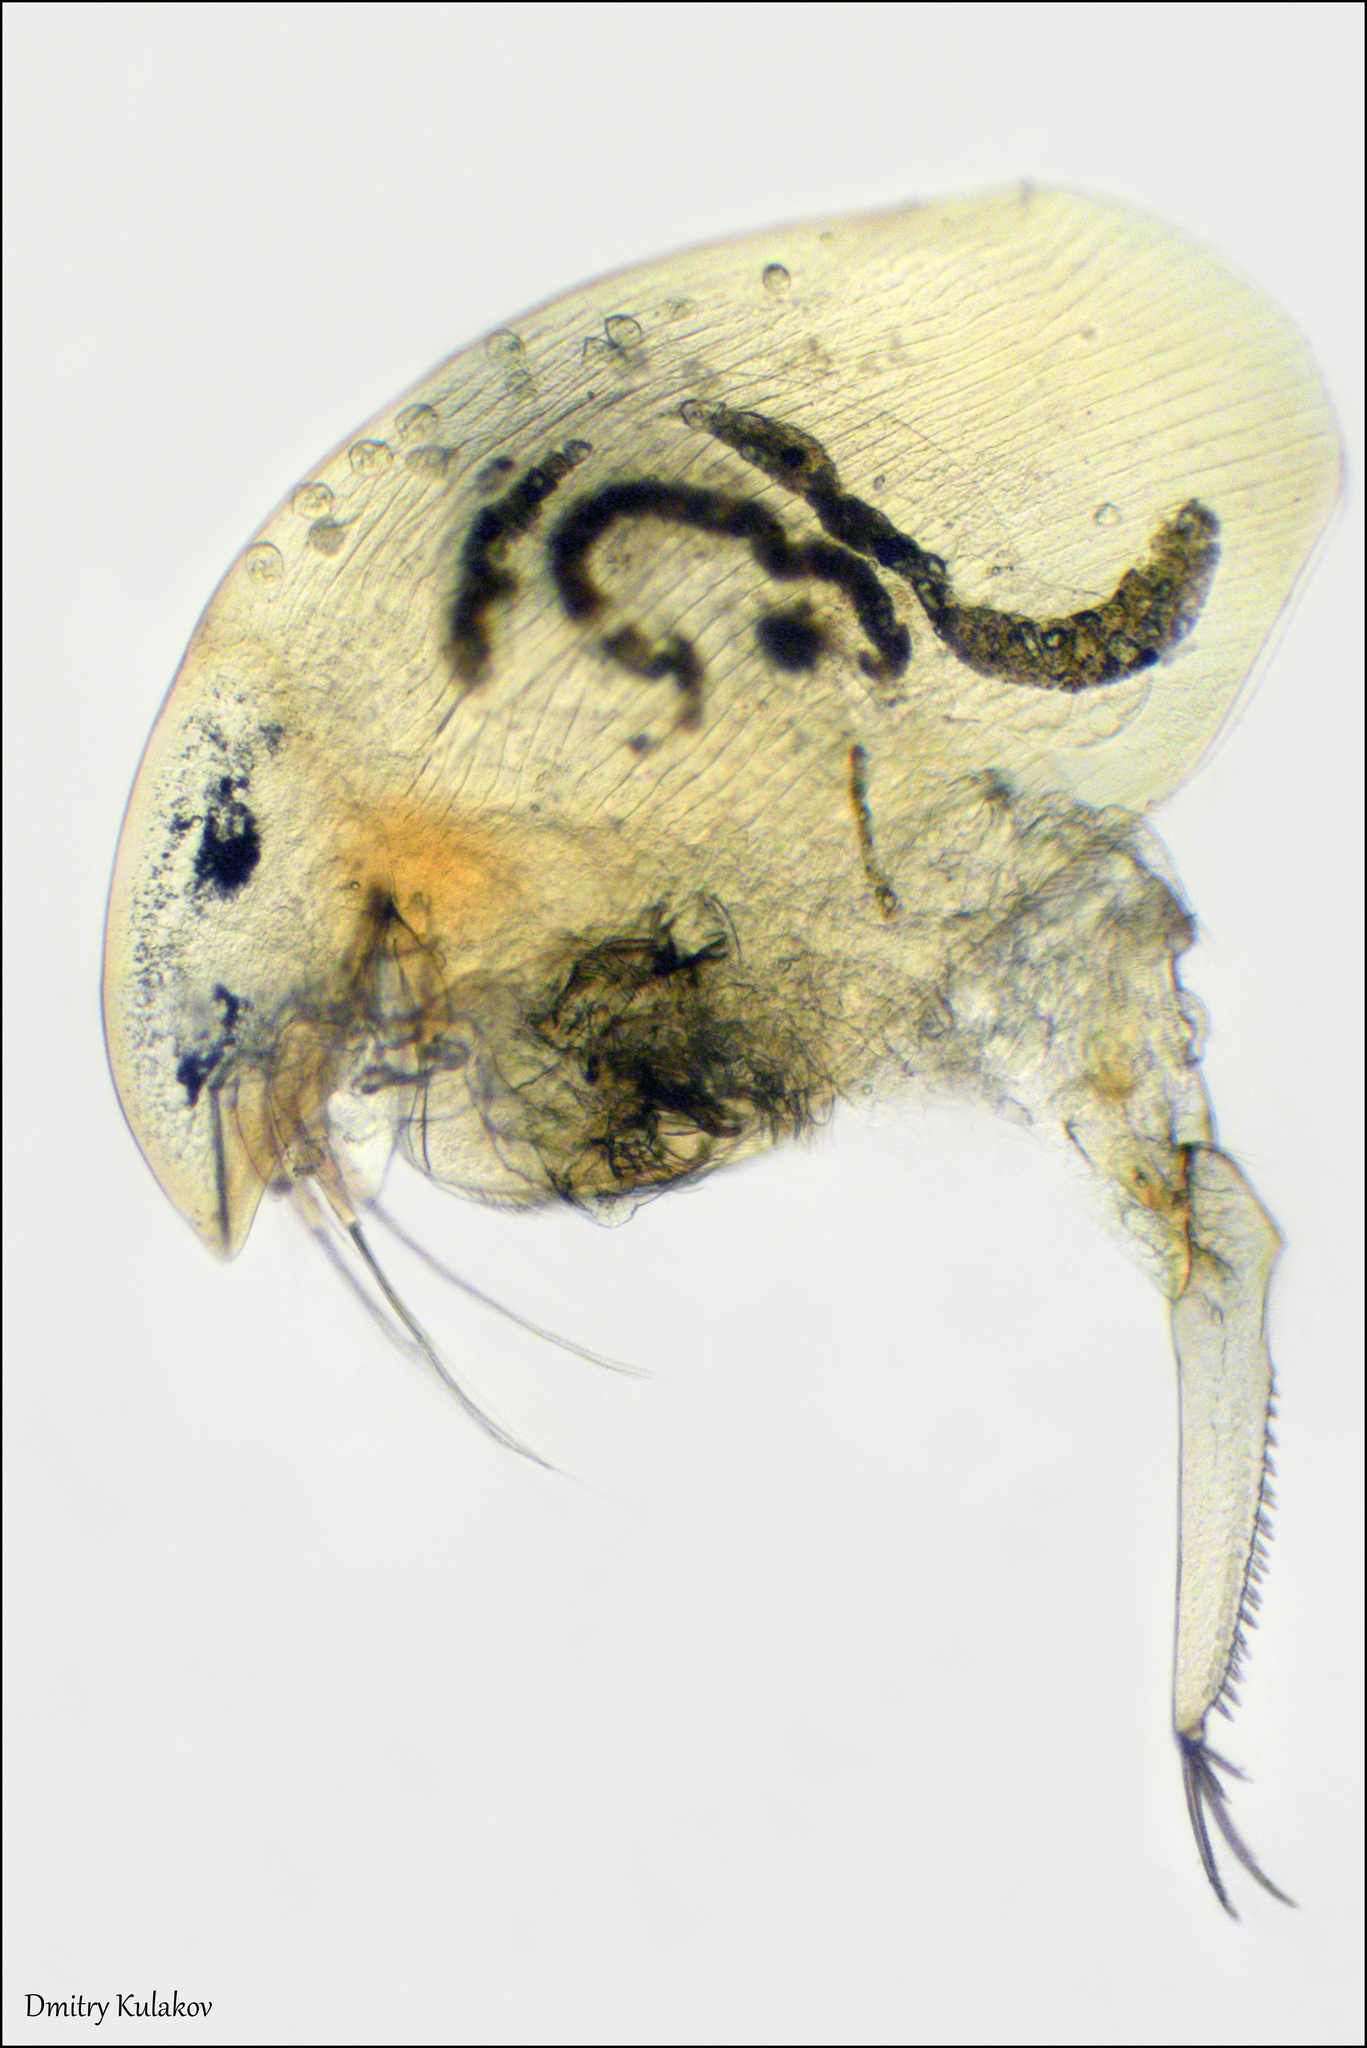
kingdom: Animalia
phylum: Arthropoda
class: Branchiopoda
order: Diplostraca
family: Chydoridae
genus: Camptocercus
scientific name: Camptocercus rectirostris
